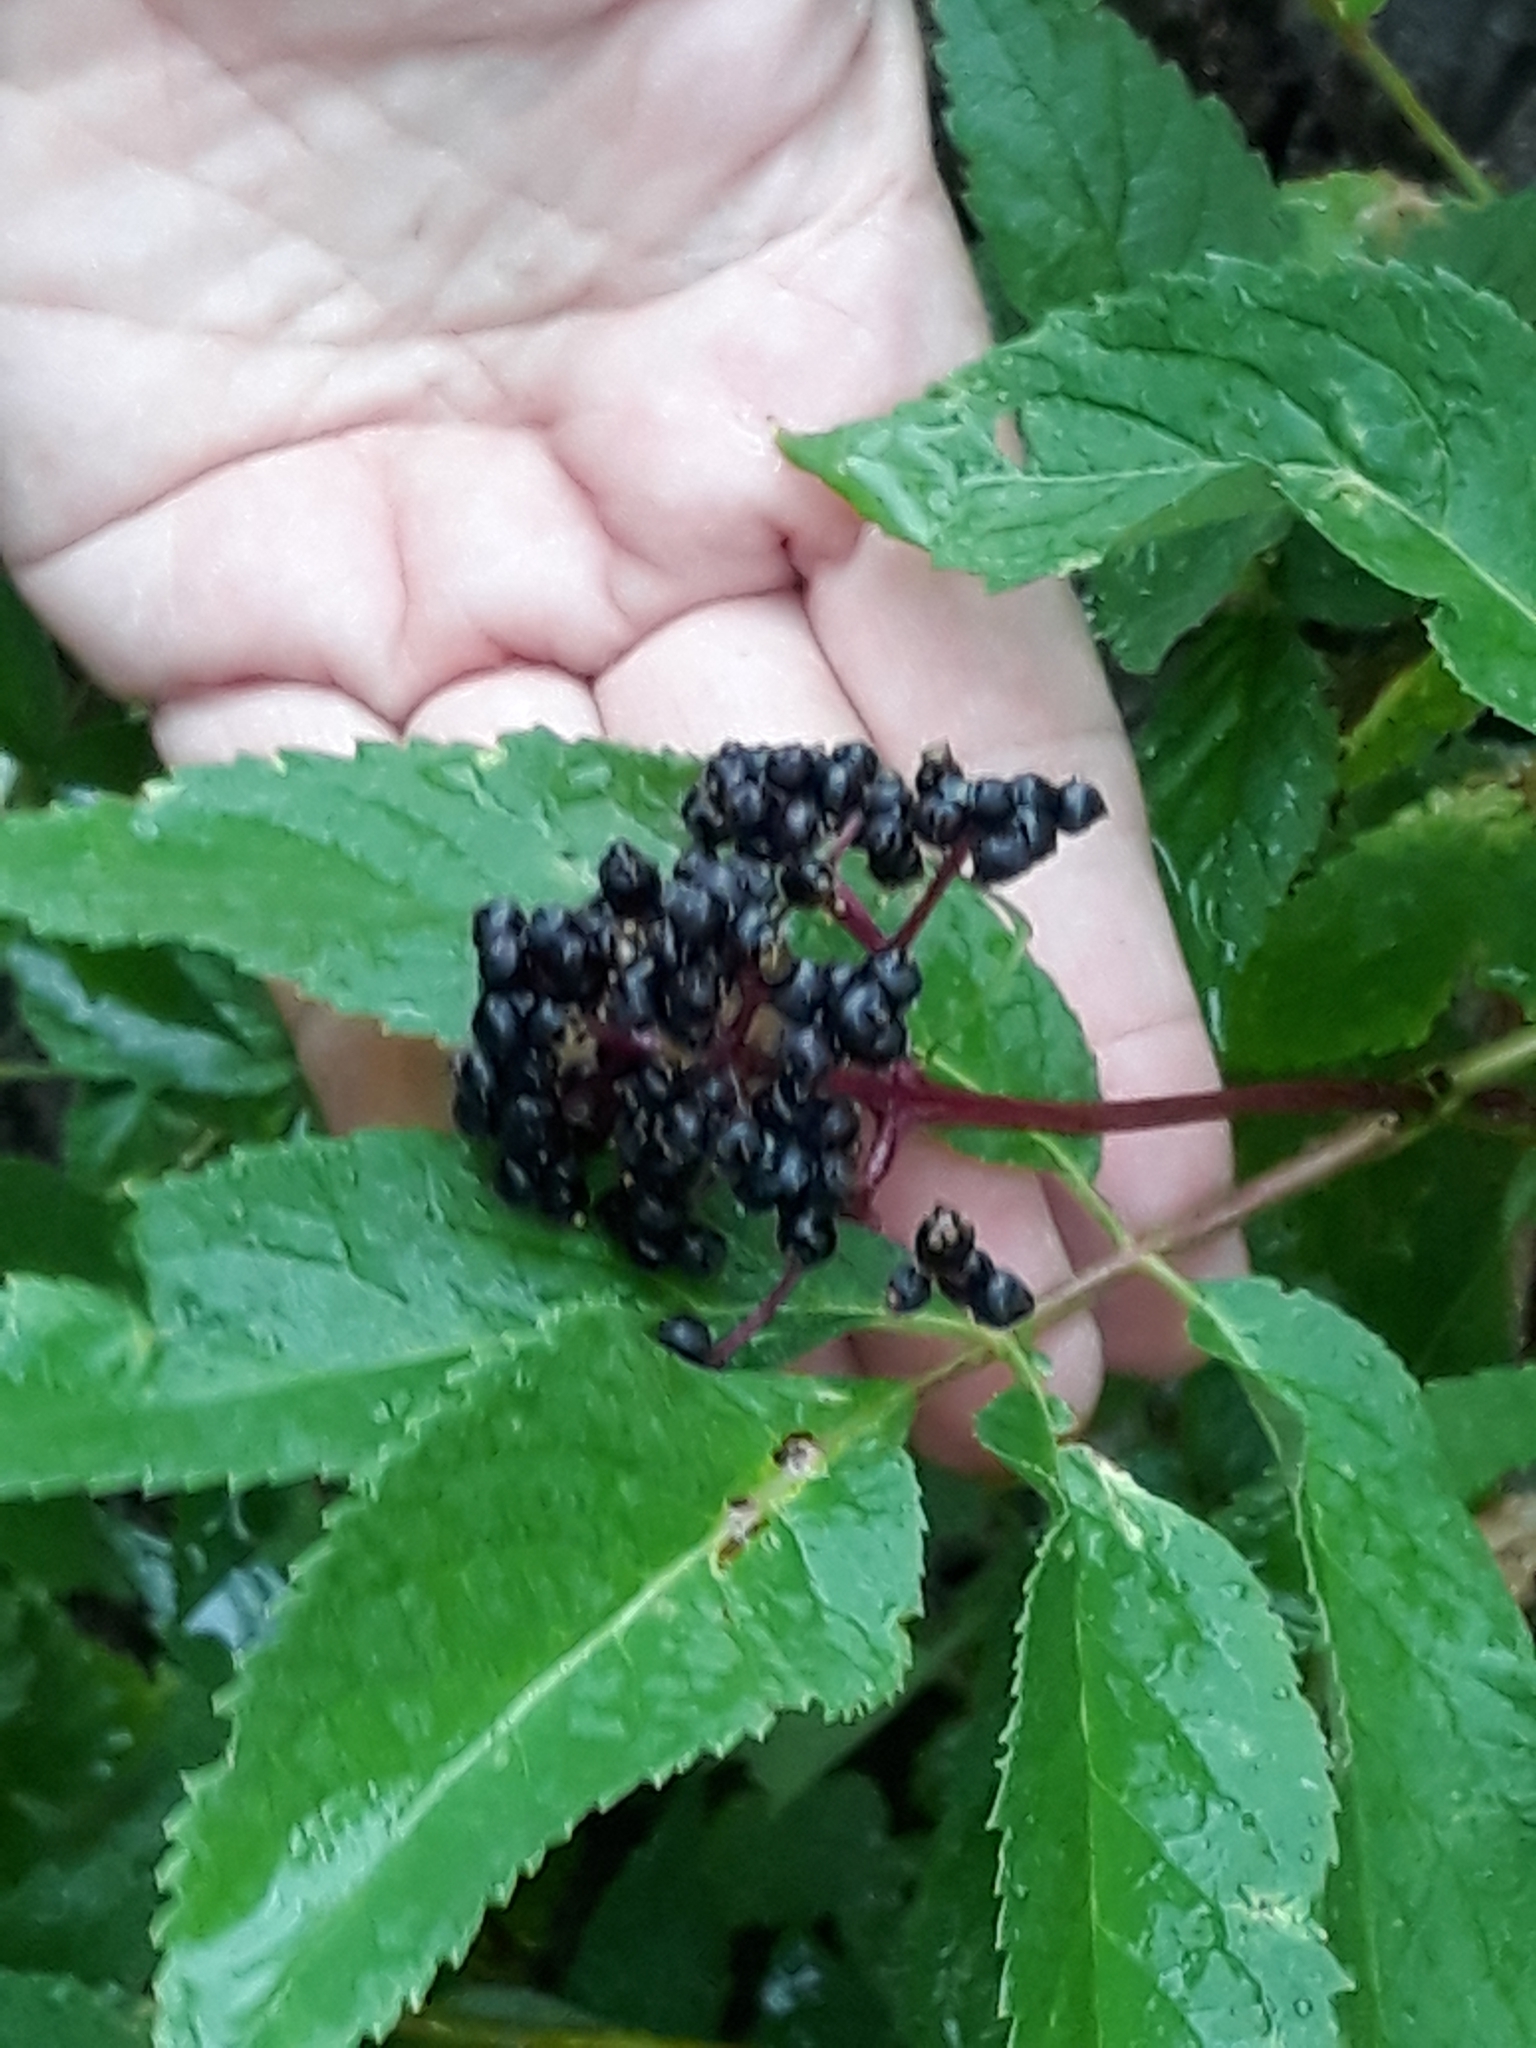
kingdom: Plantae
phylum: Tracheophyta
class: Magnoliopsida
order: Dipsacales
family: Viburnaceae
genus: Sambucus
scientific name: Sambucus racemosa
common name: Red-berried elder
